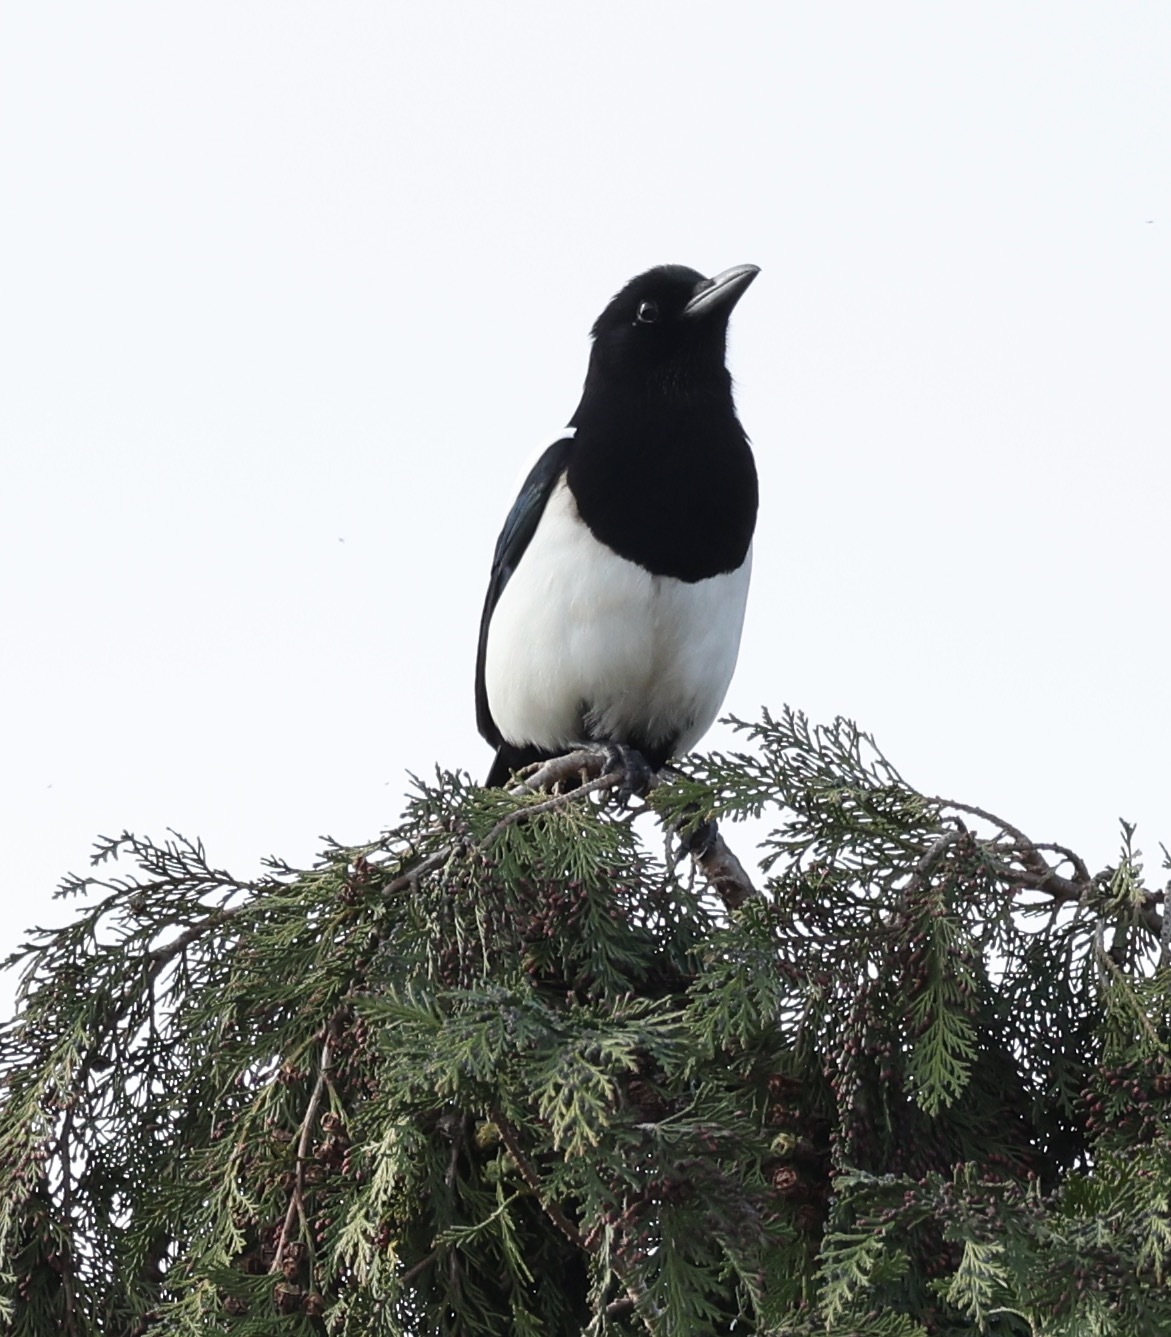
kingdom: Animalia
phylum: Chordata
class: Aves
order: Passeriformes
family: Corvidae
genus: Pica
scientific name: Pica pica
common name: Eurasian magpie
